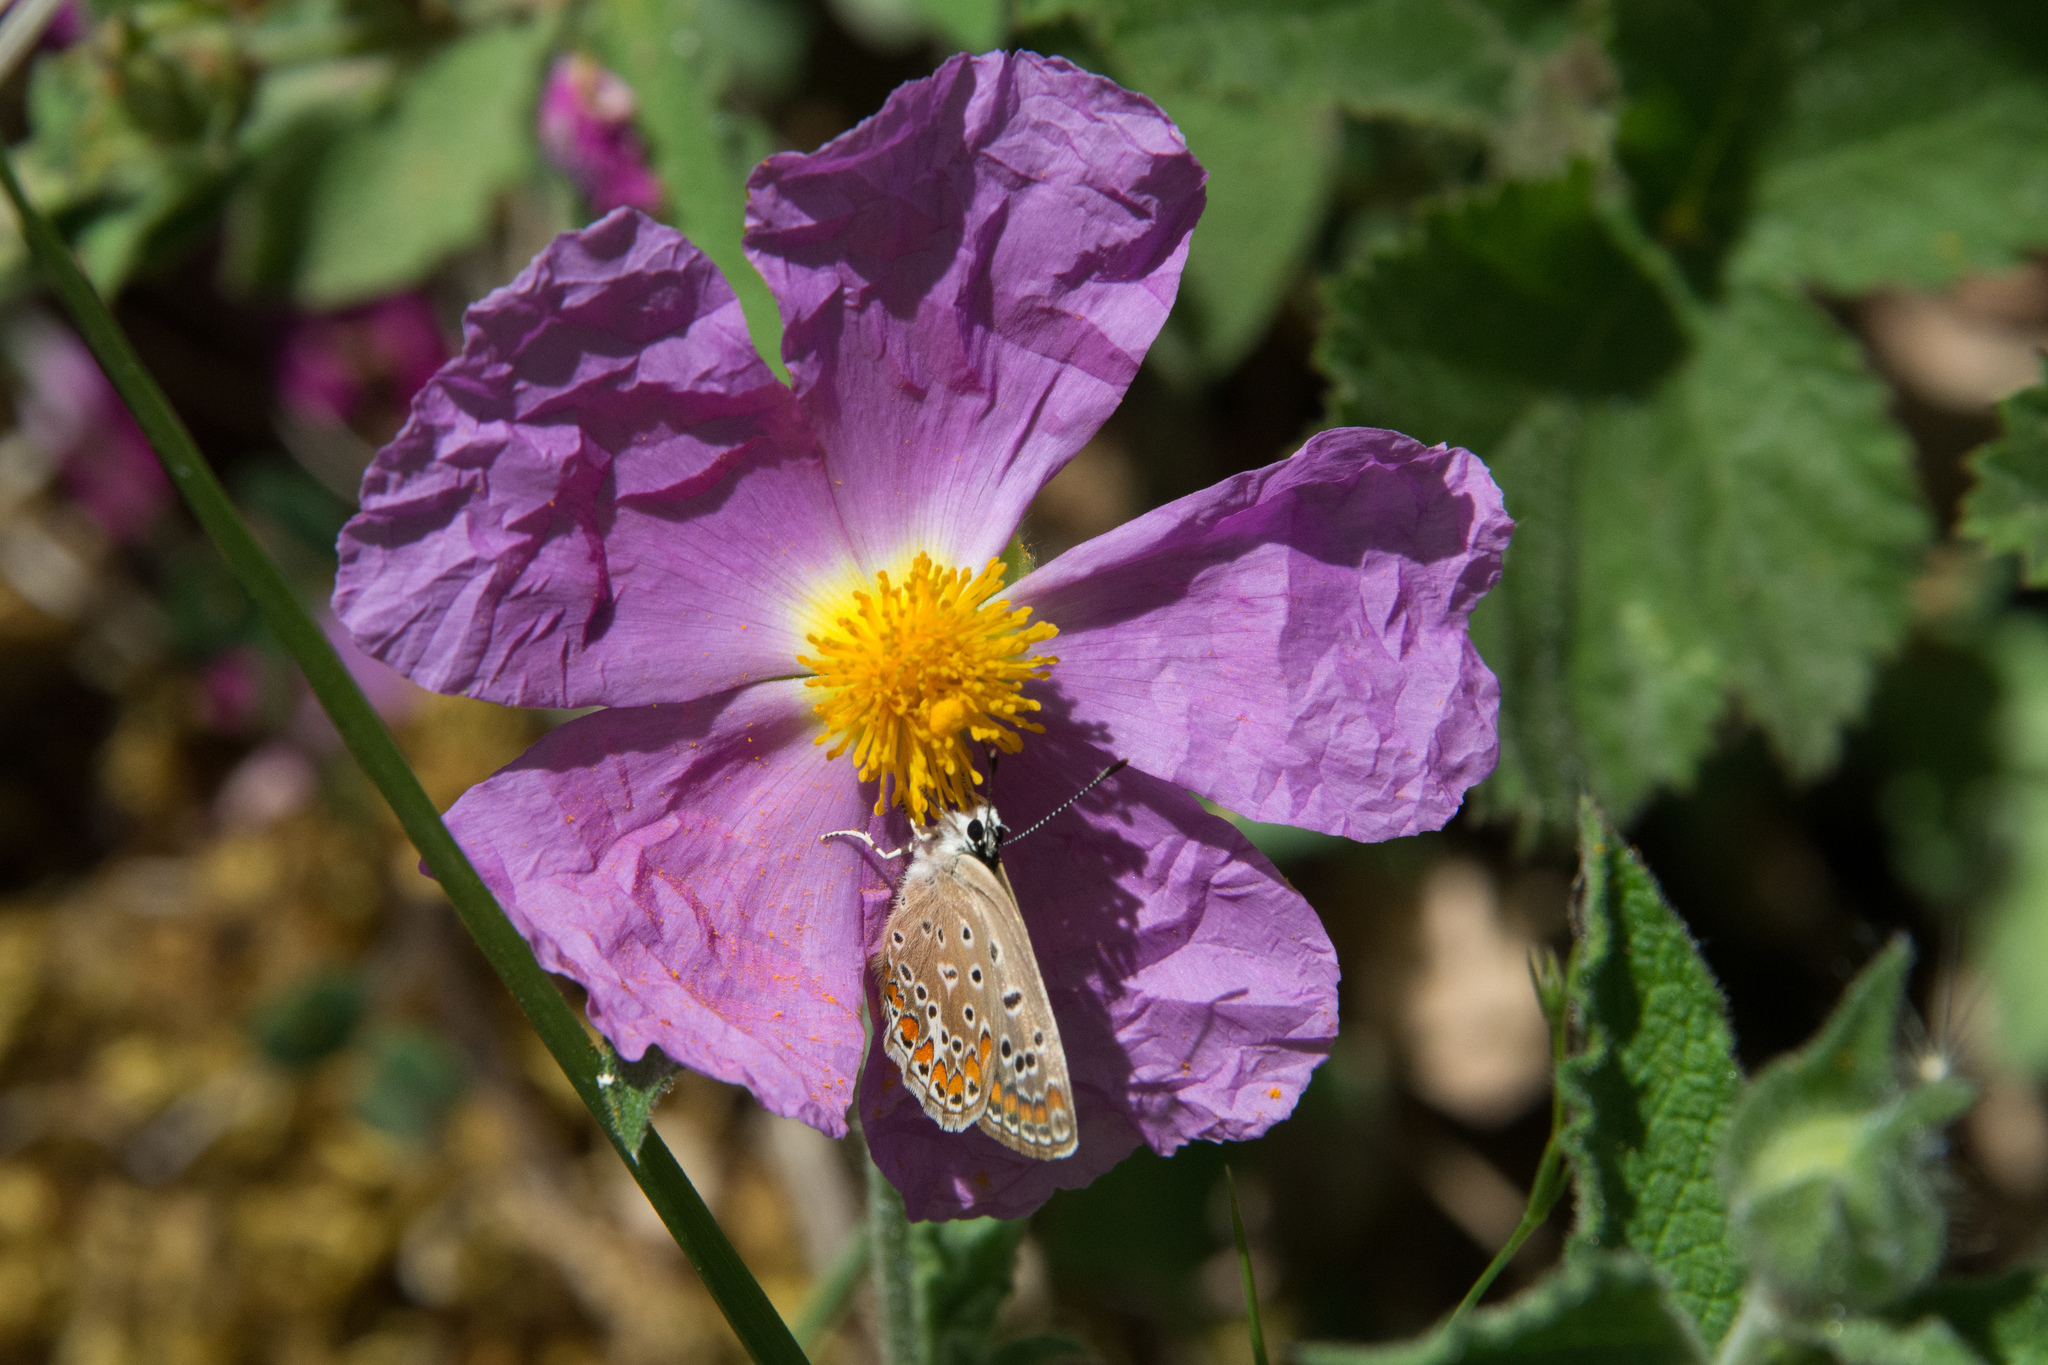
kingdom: Plantae
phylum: Tracheophyta
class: Magnoliopsida
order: Malvales
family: Cistaceae
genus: Cistus
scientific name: Cistus creticus
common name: Cretan rockrose
